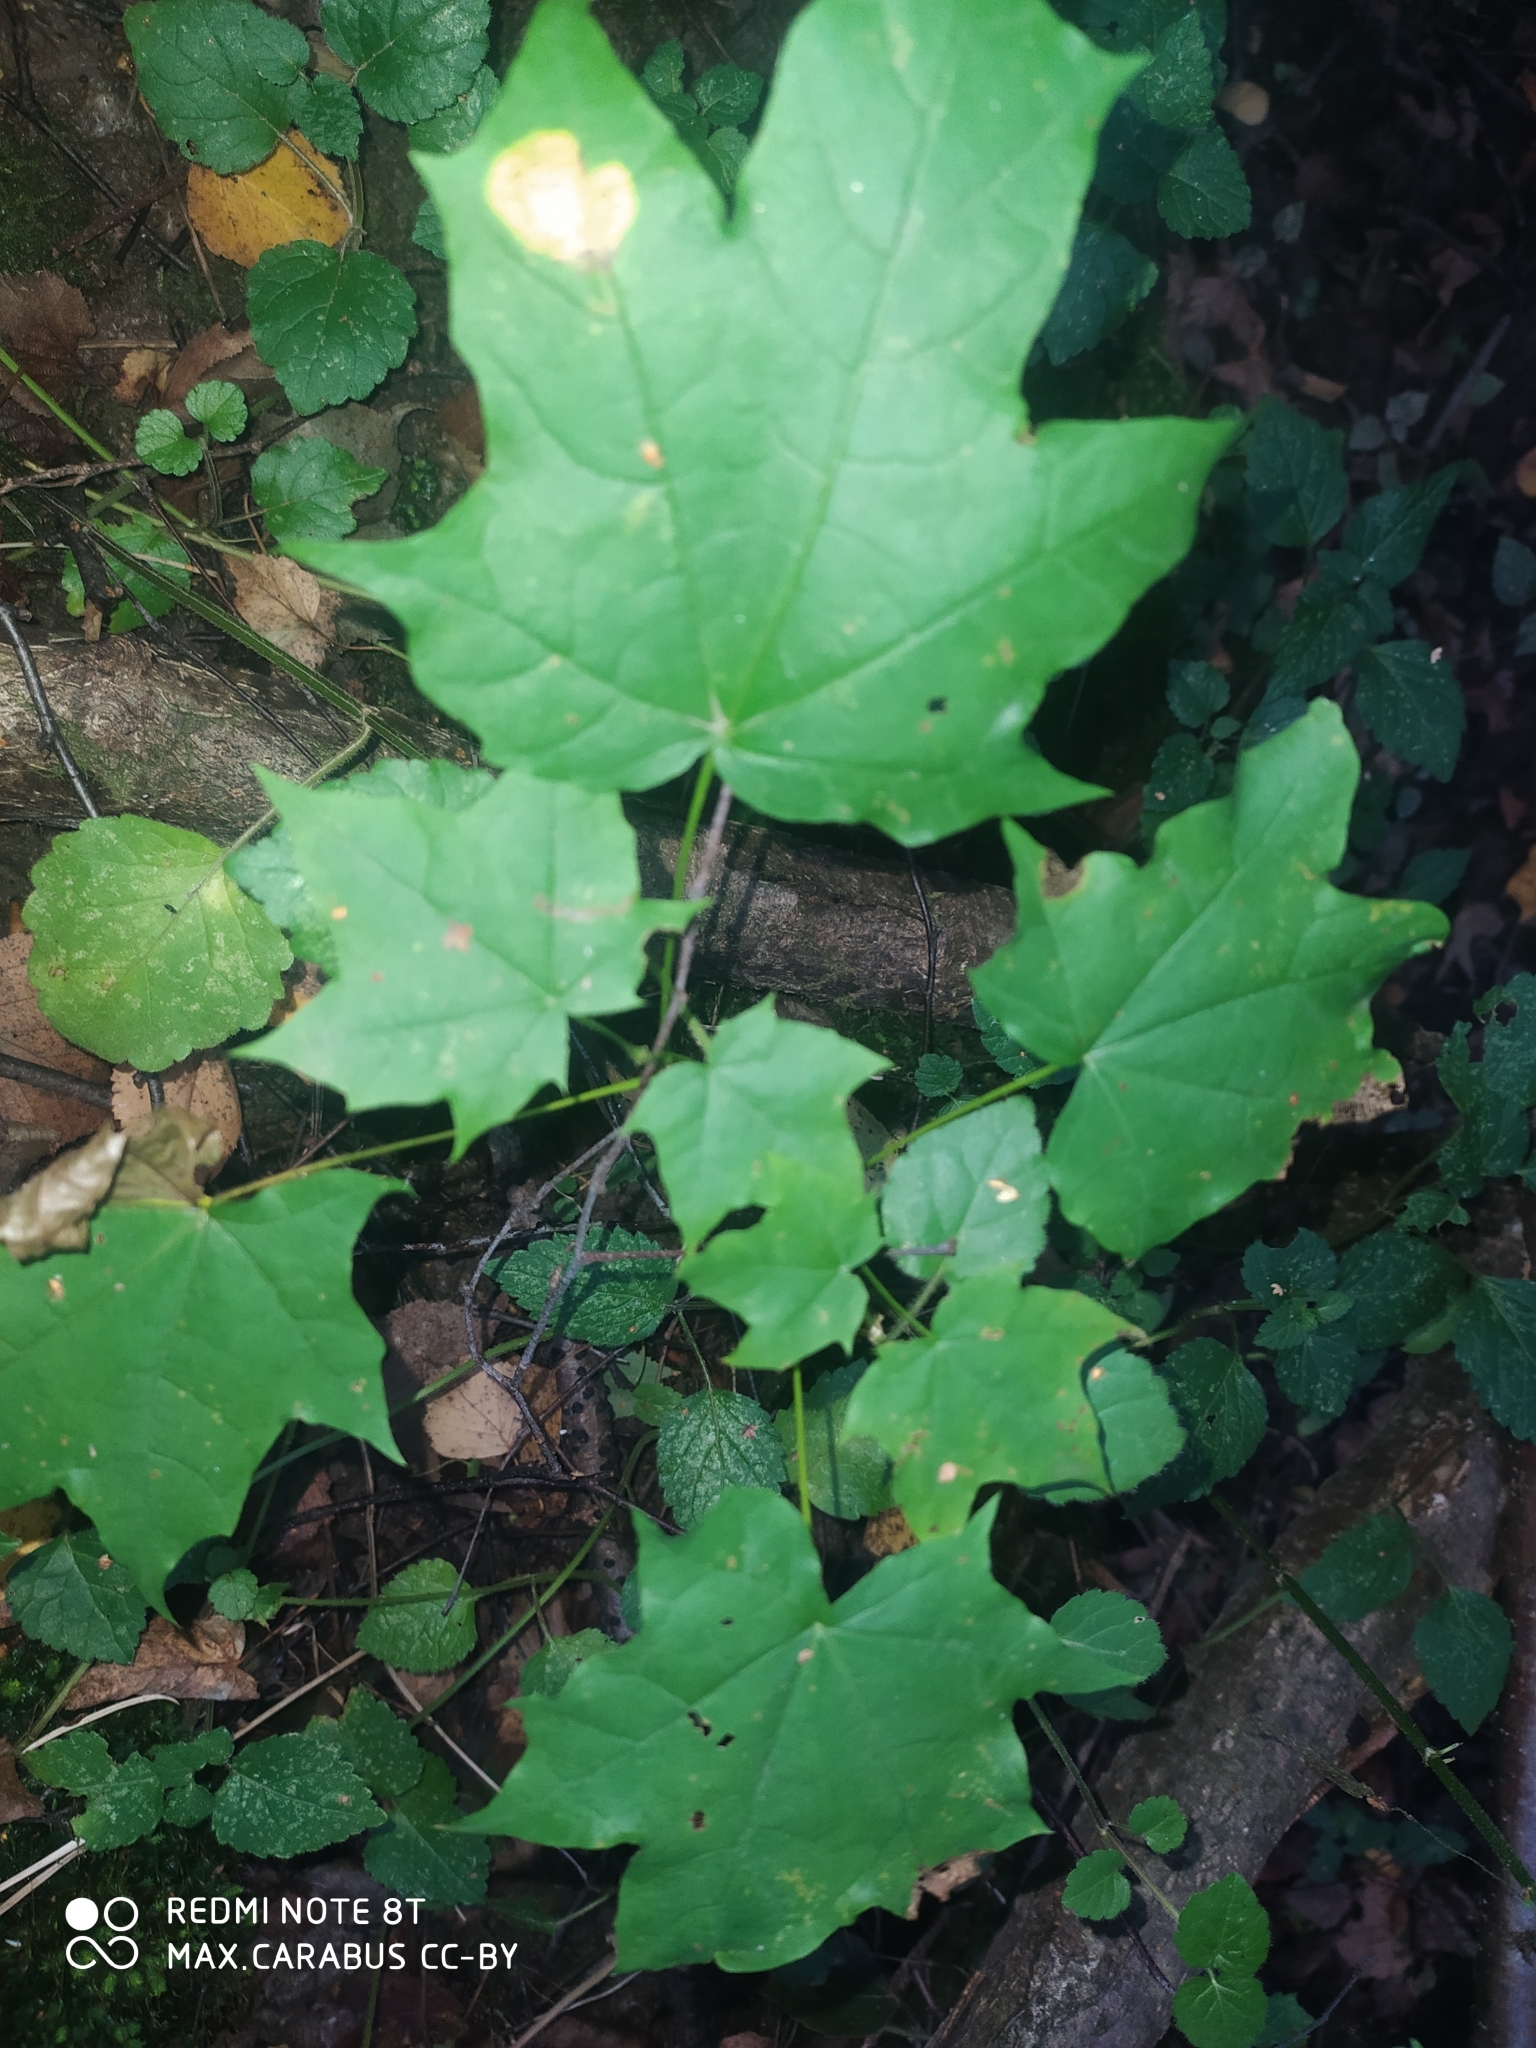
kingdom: Plantae
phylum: Tracheophyta
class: Magnoliopsida
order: Sapindales
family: Sapindaceae
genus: Acer
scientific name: Acer platanoides
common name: Norway maple
